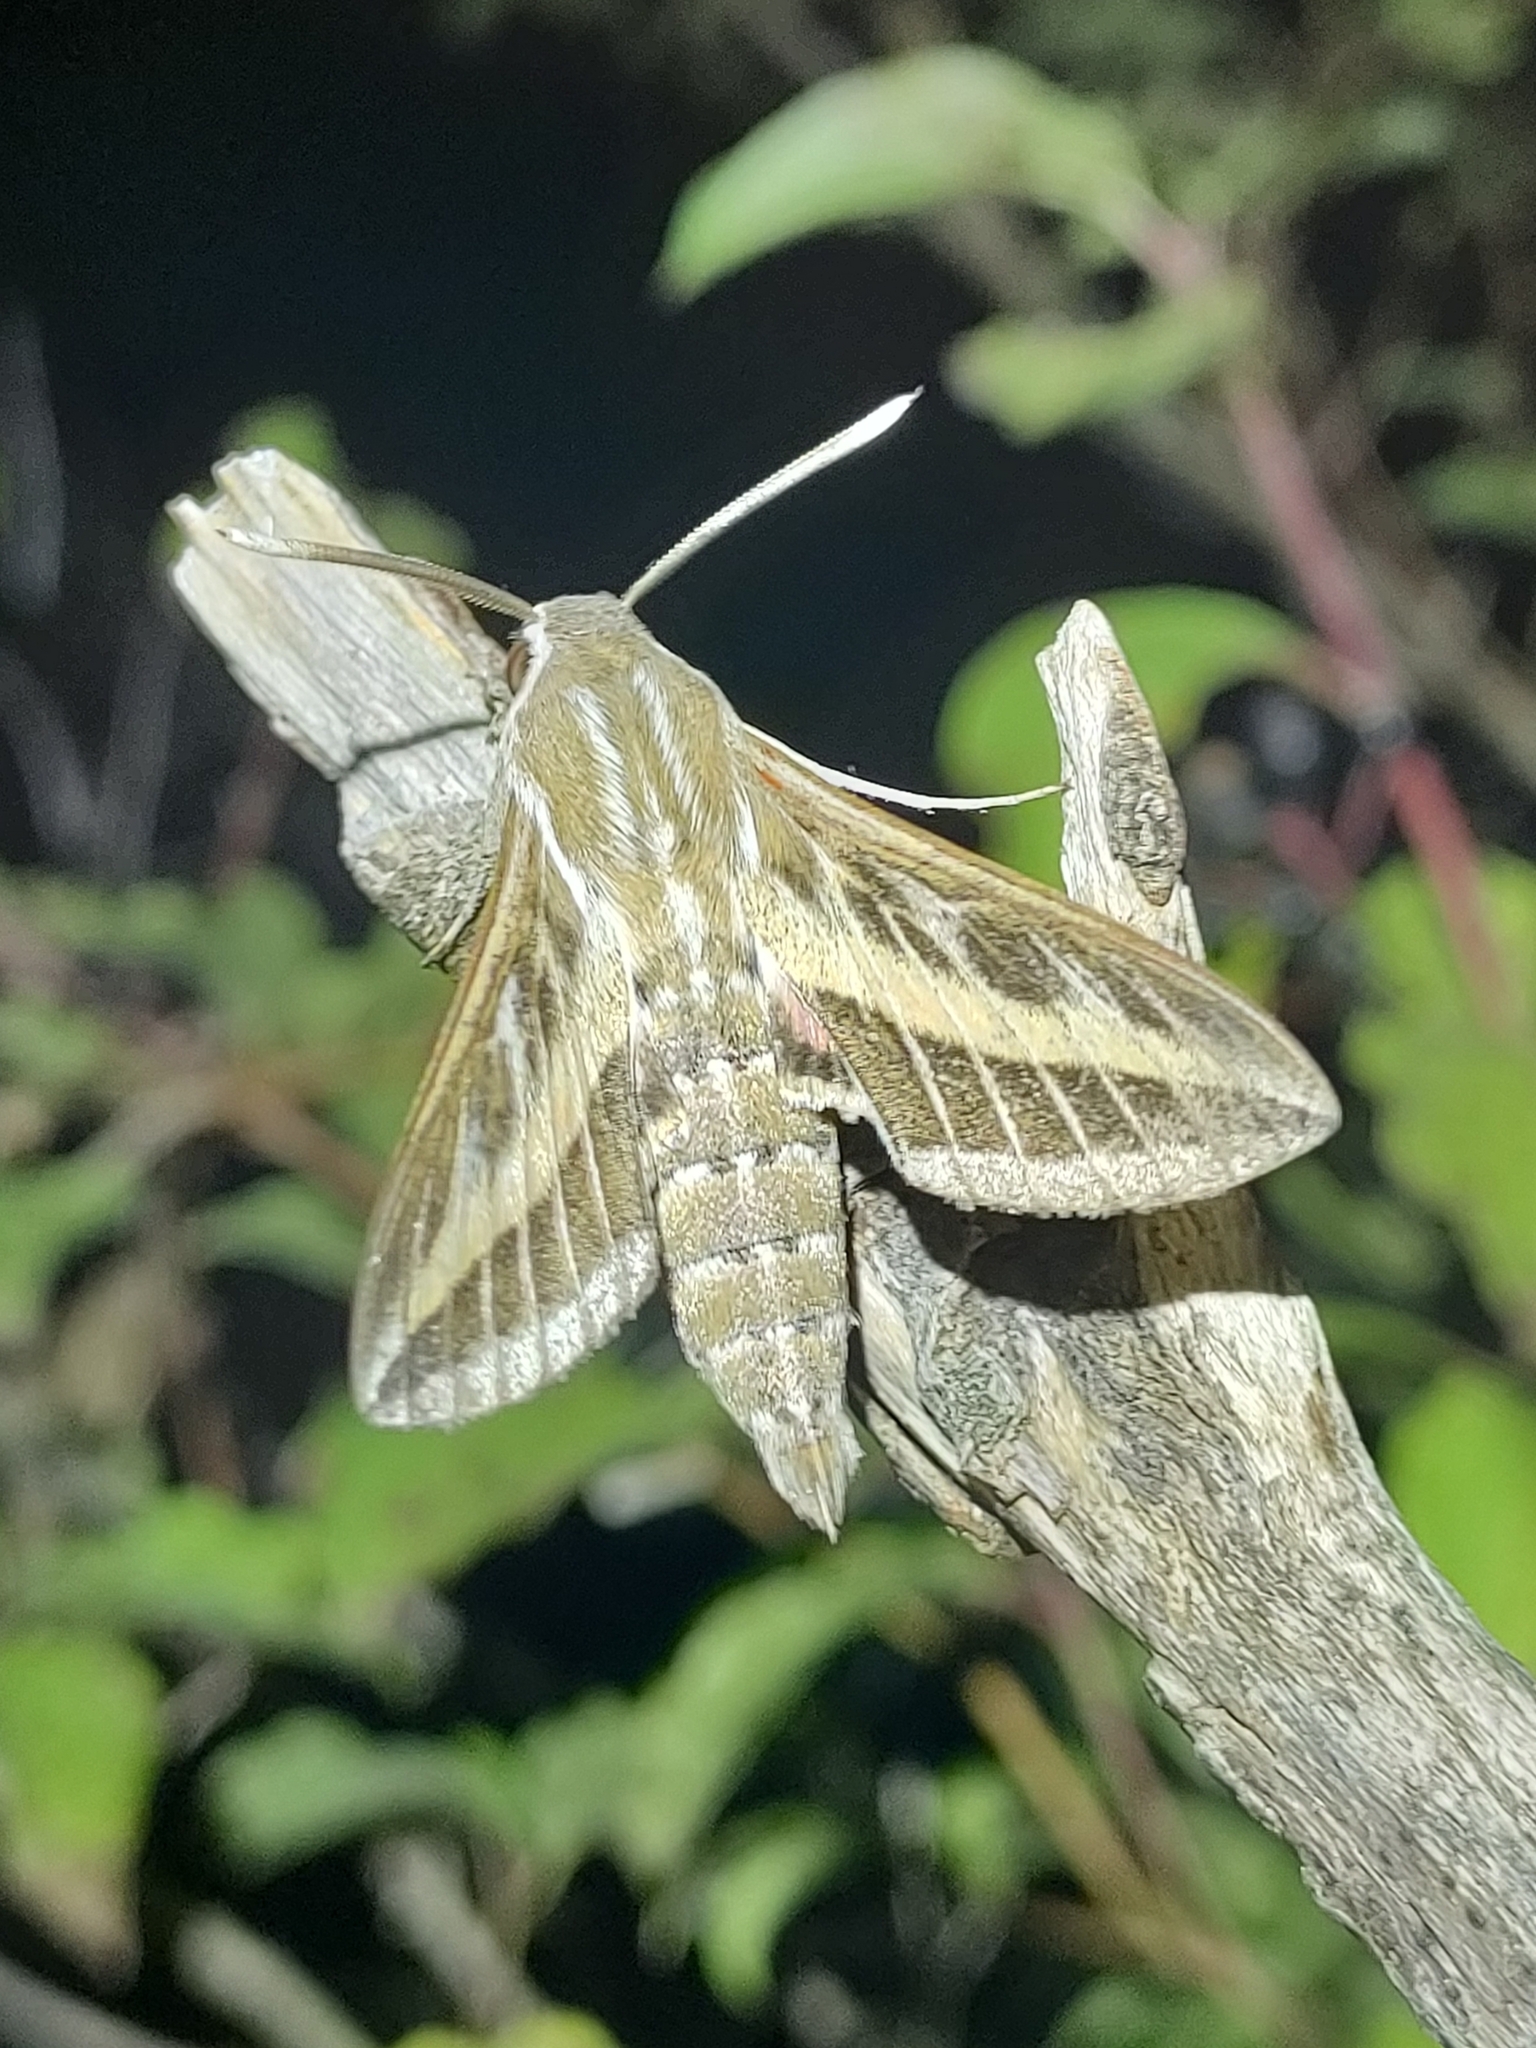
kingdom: Animalia
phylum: Arthropoda
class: Insecta
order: Lepidoptera
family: Sphingidae
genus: Hyles
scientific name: Hyles livornica
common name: Striped hawk-moth
